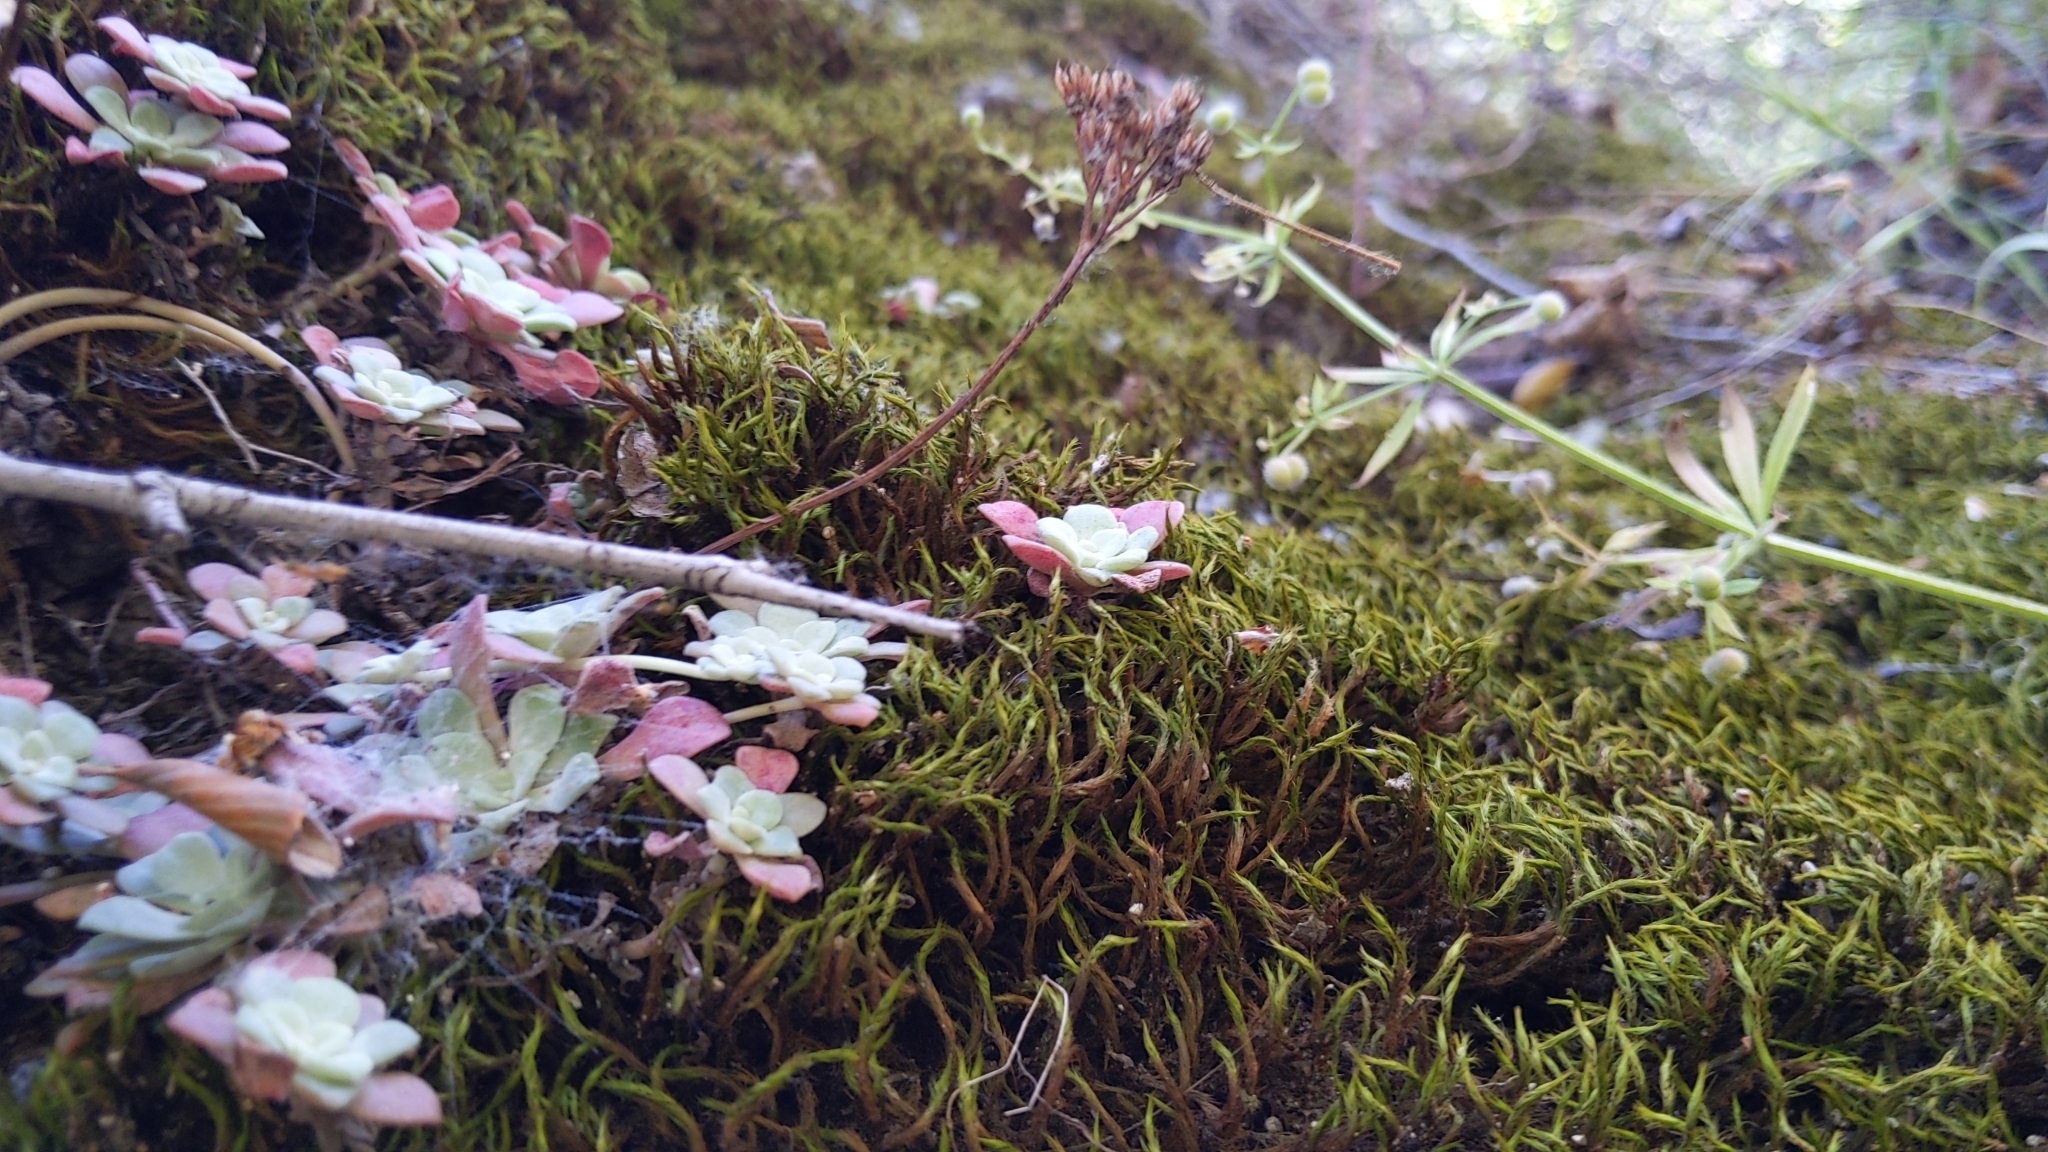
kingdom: Plantae
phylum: Tracheophyta
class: Magnoliopsida
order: Saxifragales
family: Crassulaceae
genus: Sedum
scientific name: Sedum spathulifolium
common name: Colorado stonecrop
